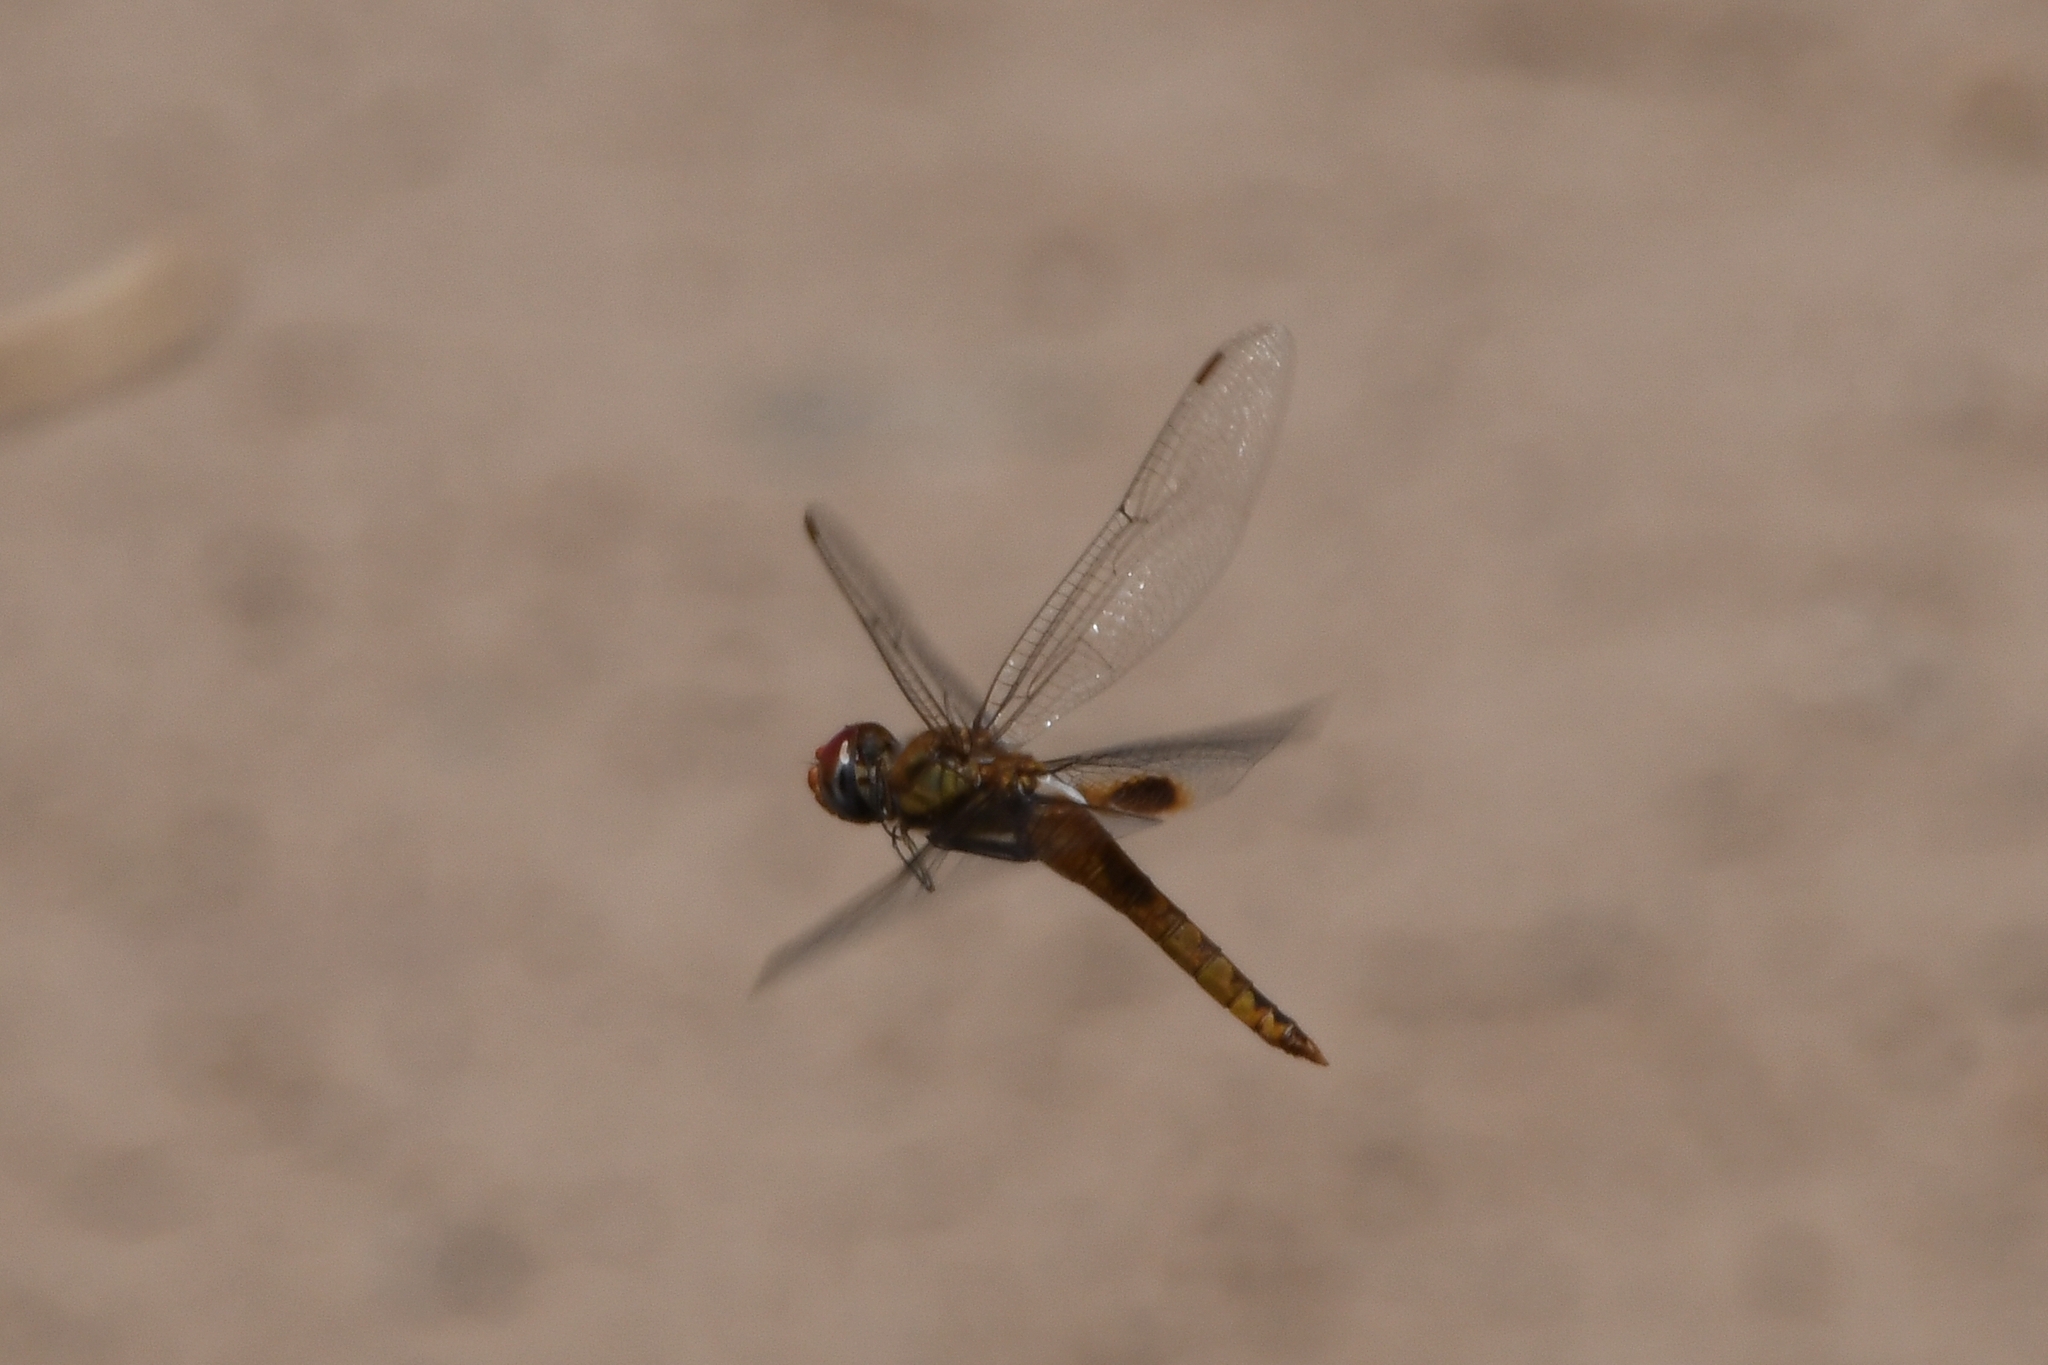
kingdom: Animalia
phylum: Arthropoda
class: Insecta
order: Odonata
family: Libellulidae
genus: Pantala
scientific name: Pantala hymenaea
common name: Spot-winged glider
